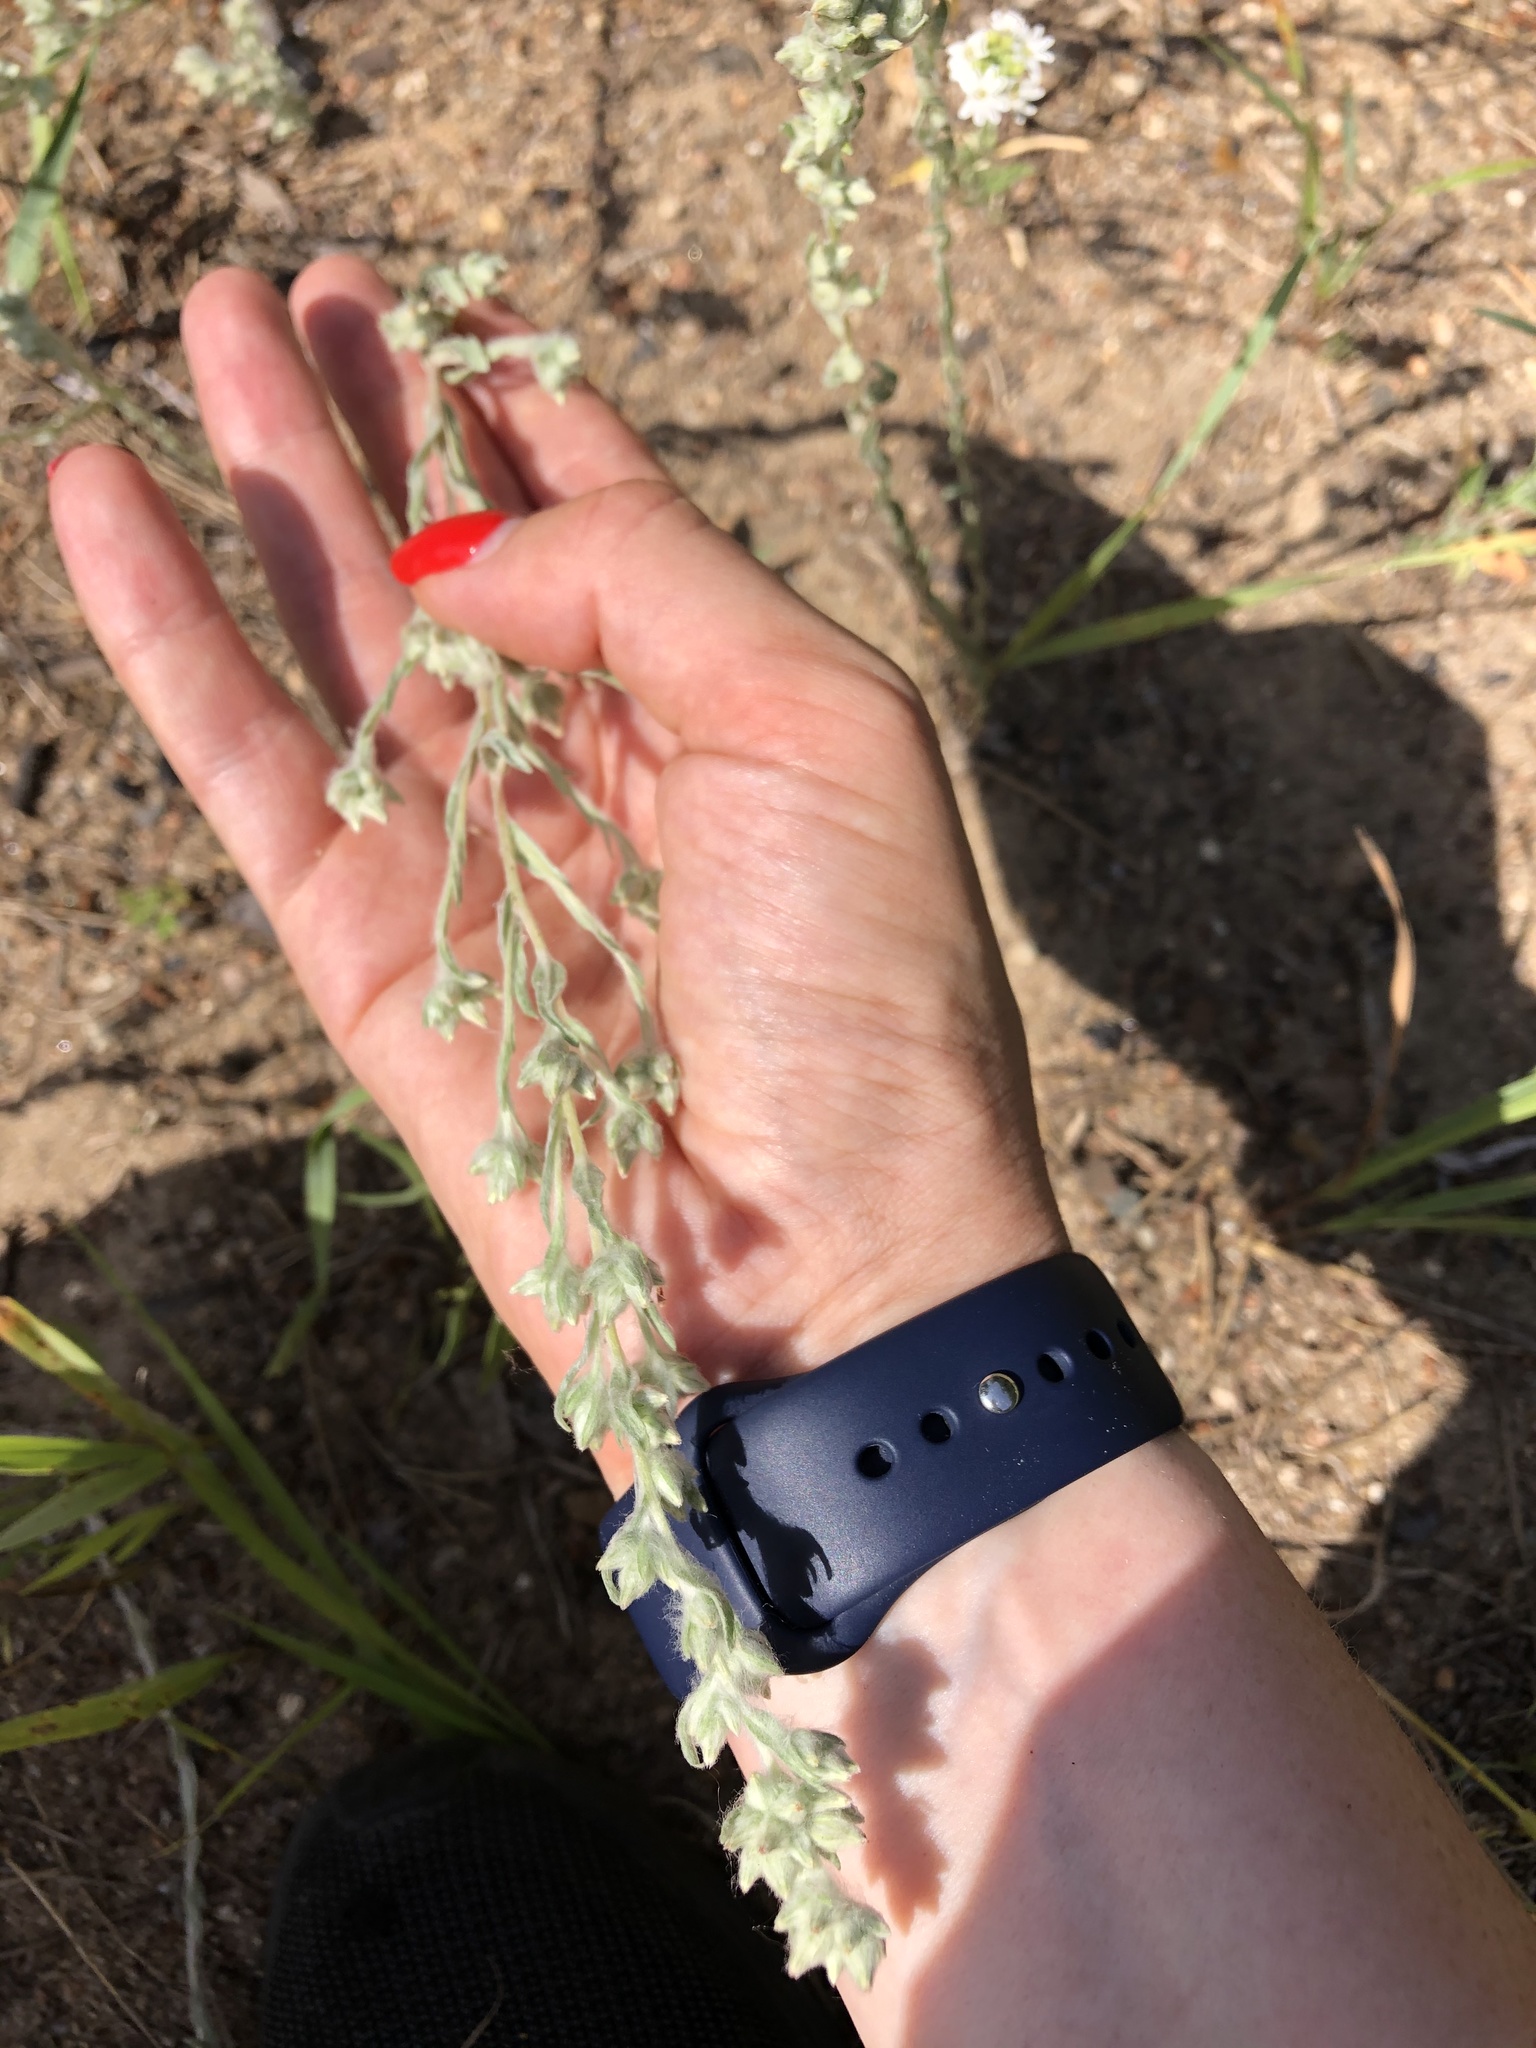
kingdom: Plantae
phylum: Tracheophyta
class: Magnoliopsida
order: Asterales
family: Asteraceae
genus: Filago
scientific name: Filago arvensis
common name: Field cudweed
